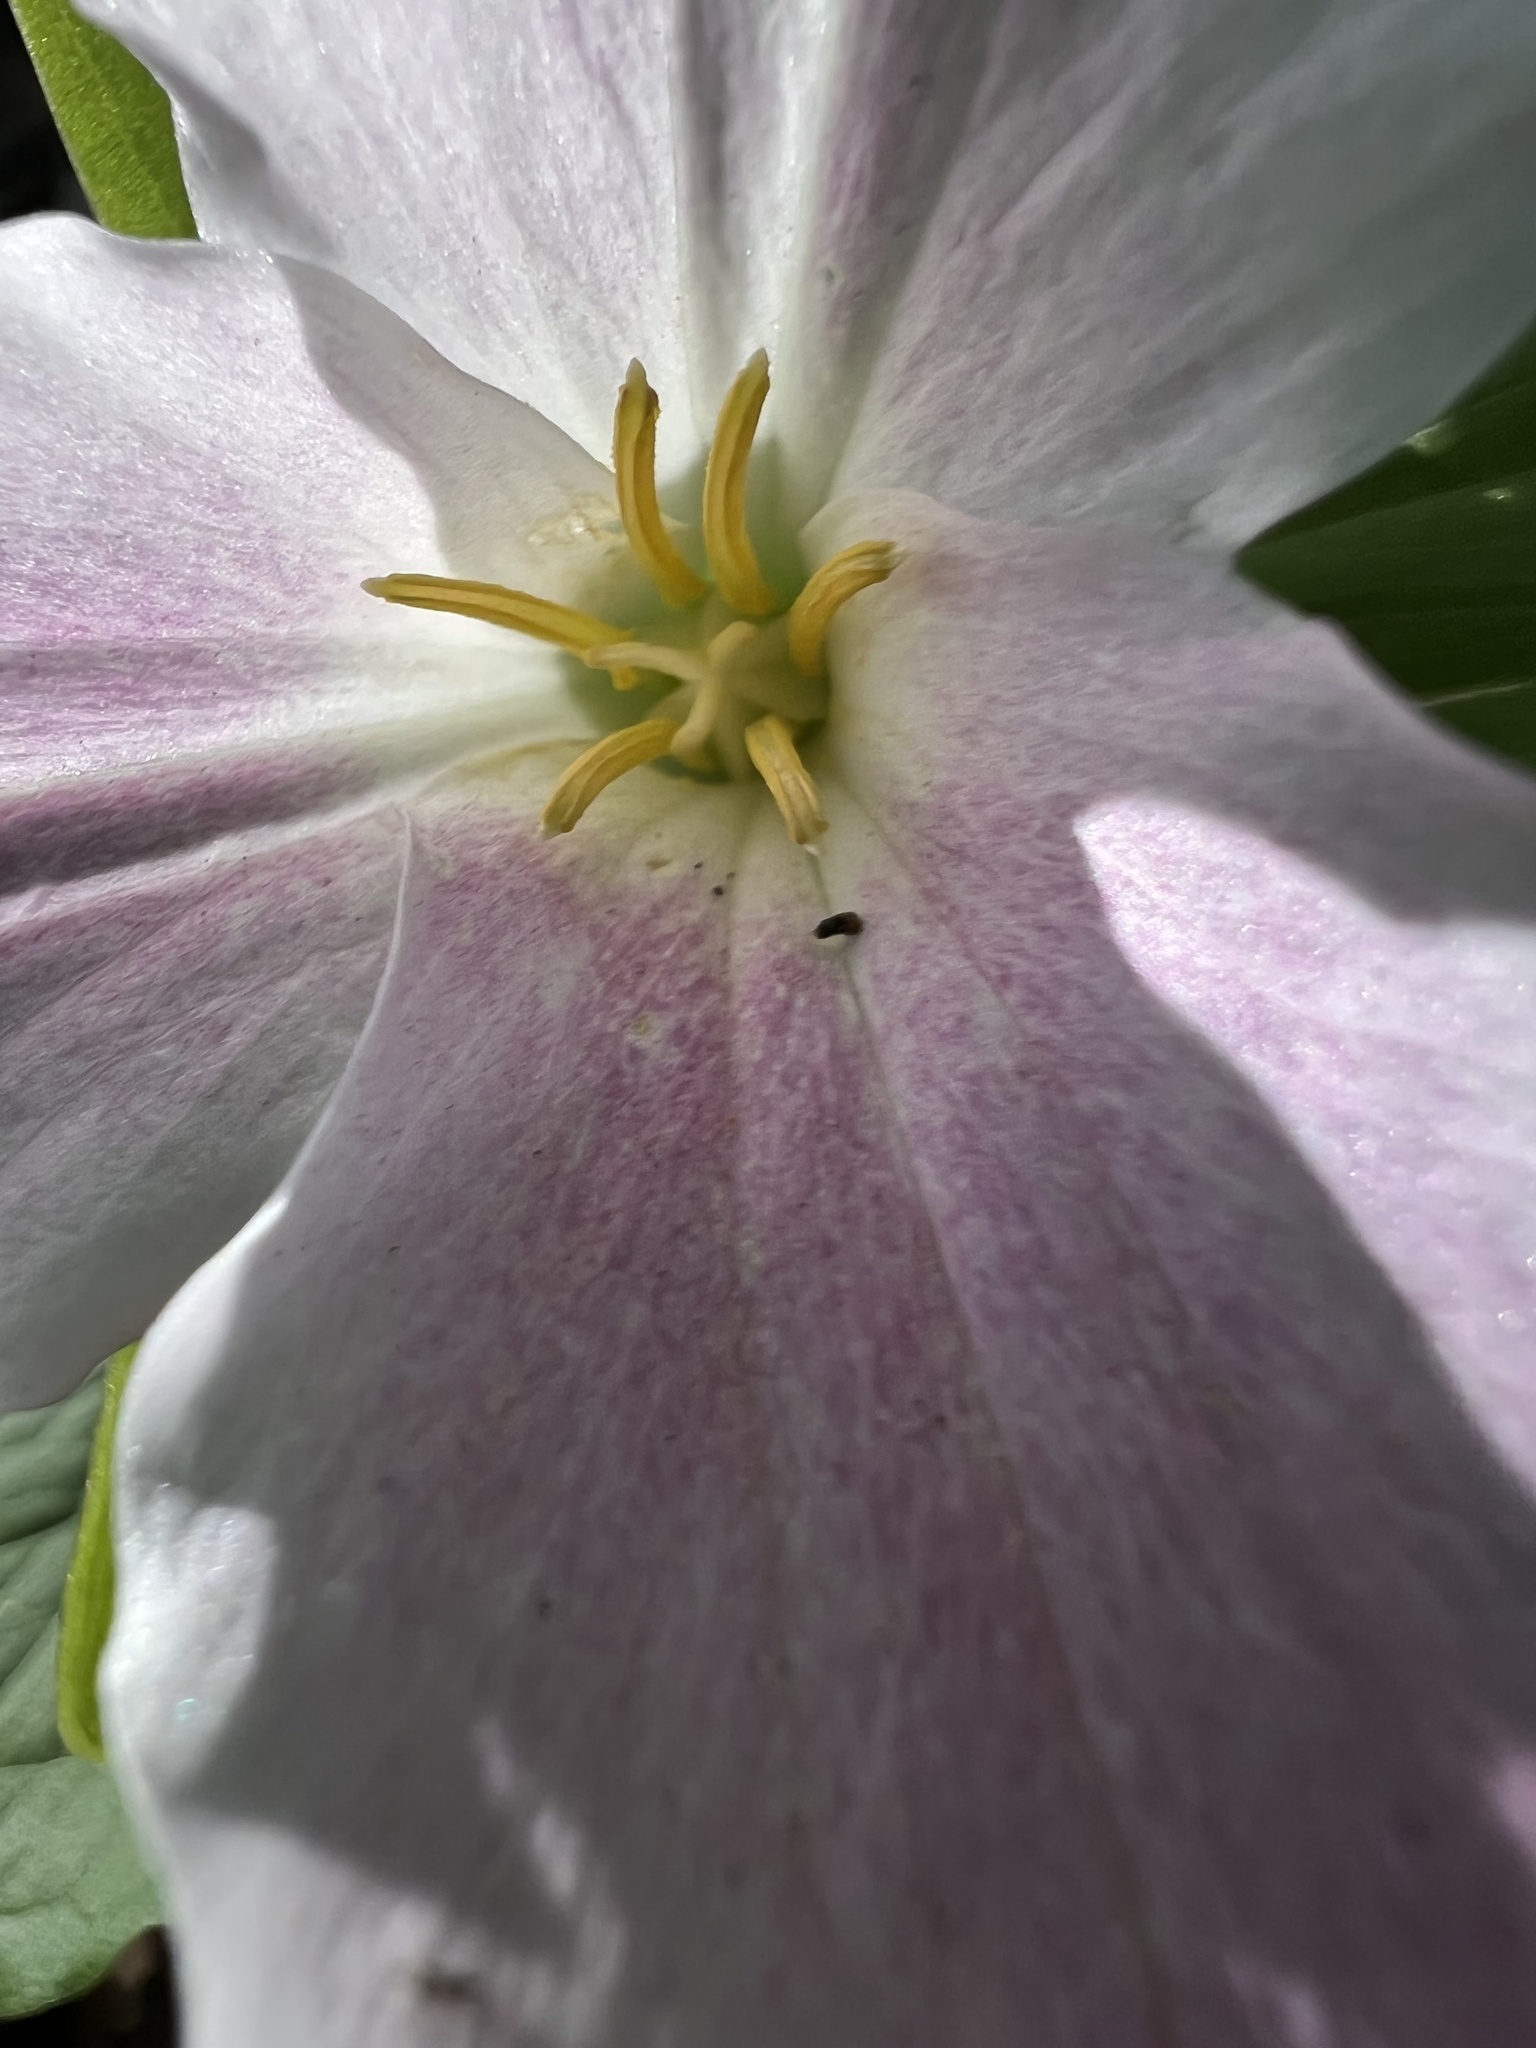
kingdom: Plantae
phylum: Tracheophyta
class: Liliopsida
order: Liliales
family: Melanthiaceae
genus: Trillium
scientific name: Trillium grandiflorum
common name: Great white trillium
